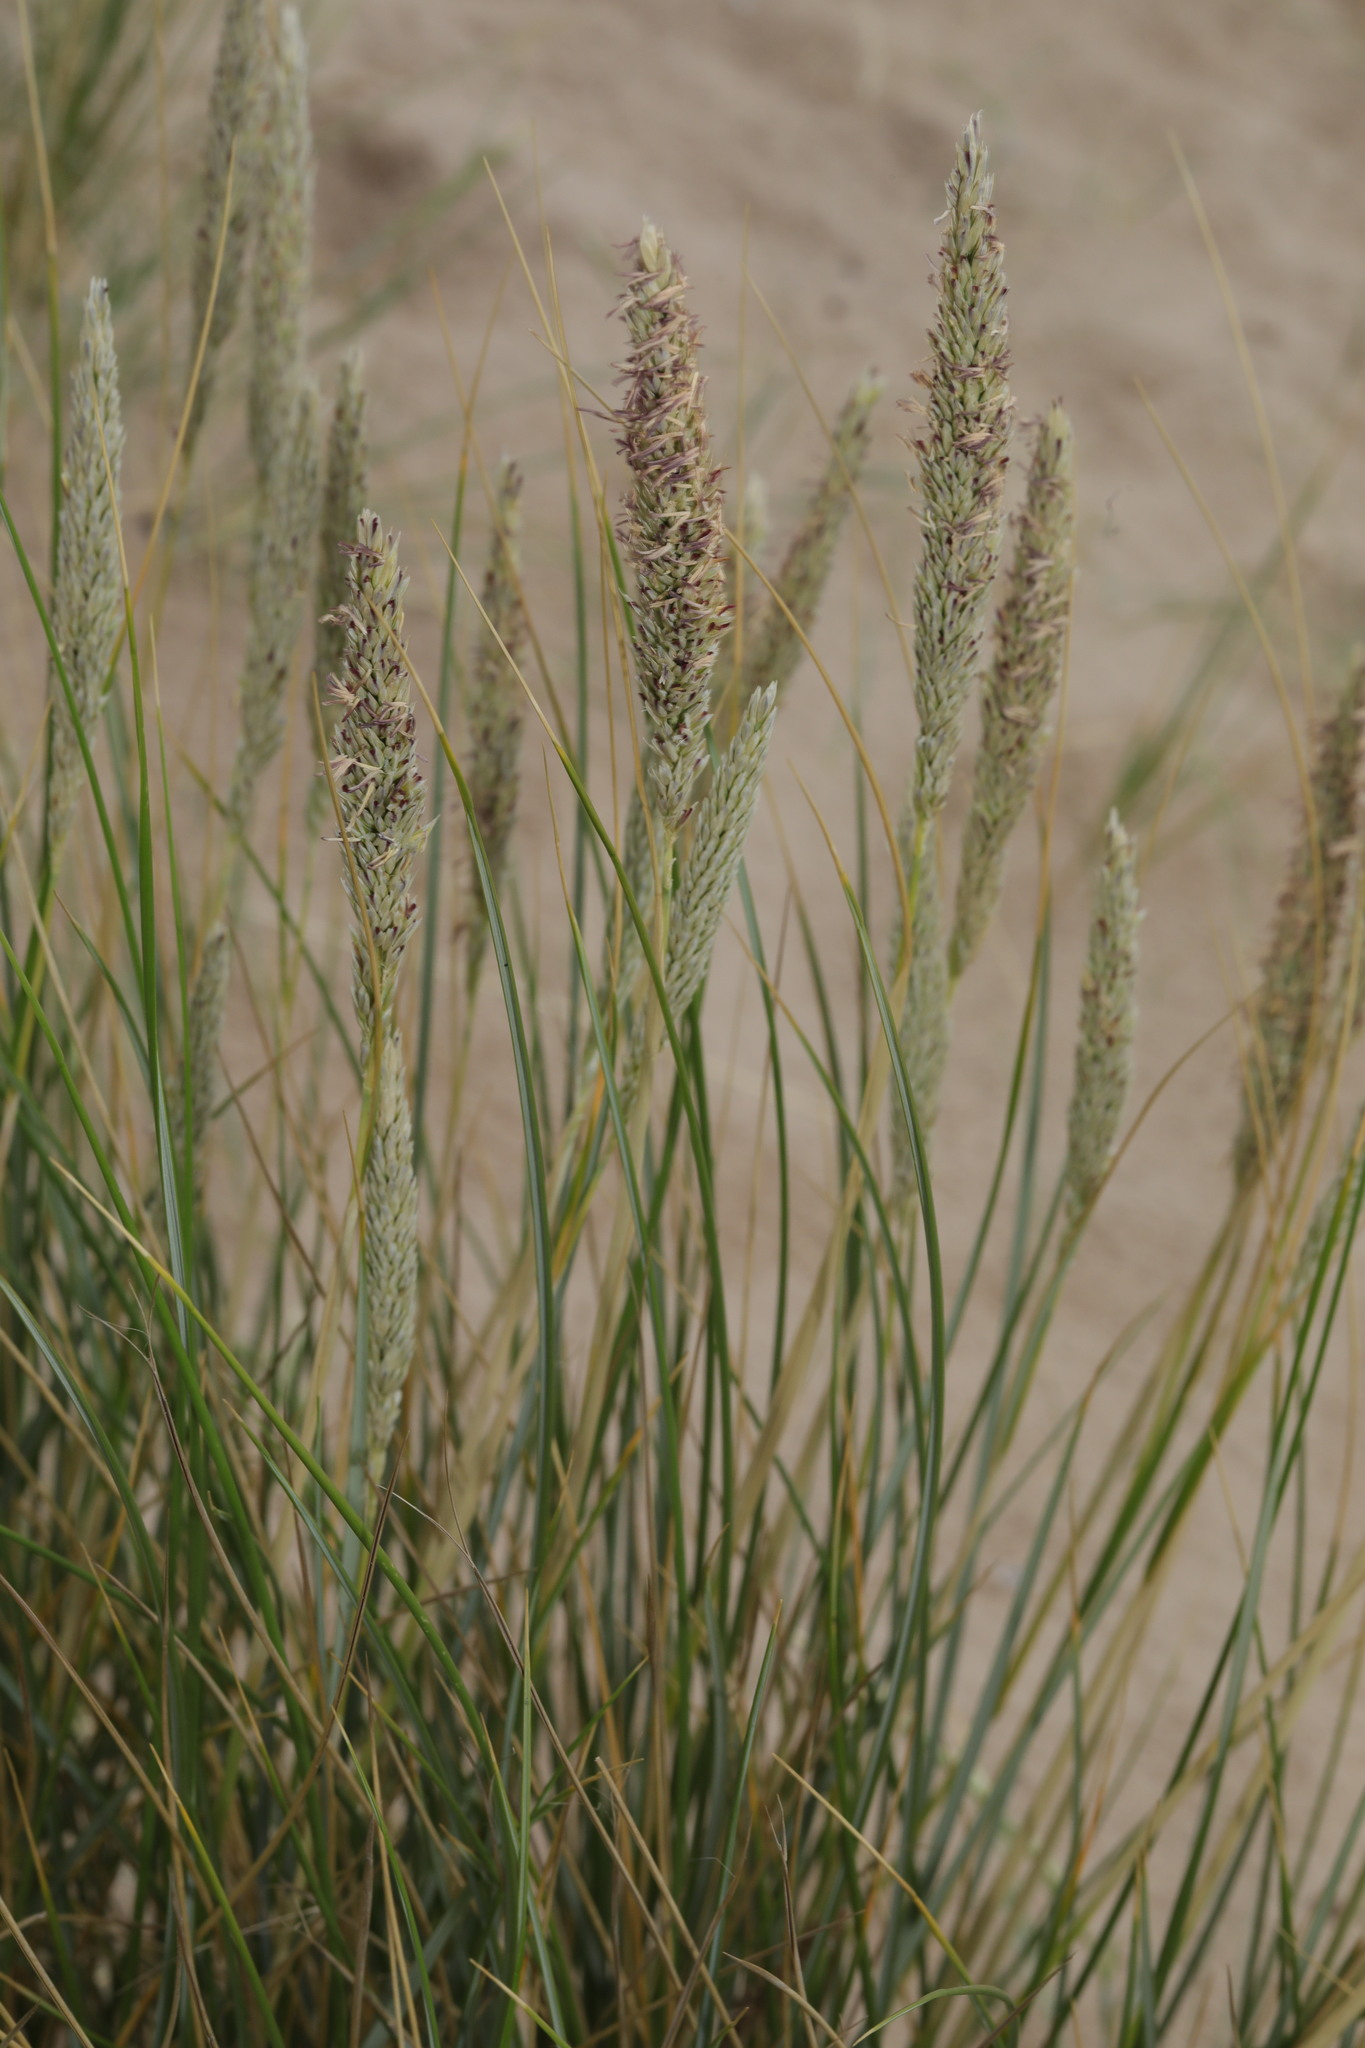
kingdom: Plantae
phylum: Tracheophyta
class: Liliopsida
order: Poales
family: Poaceae
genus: Calamagrostis
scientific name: Calamagrostis arenaria
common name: European beachgrass
